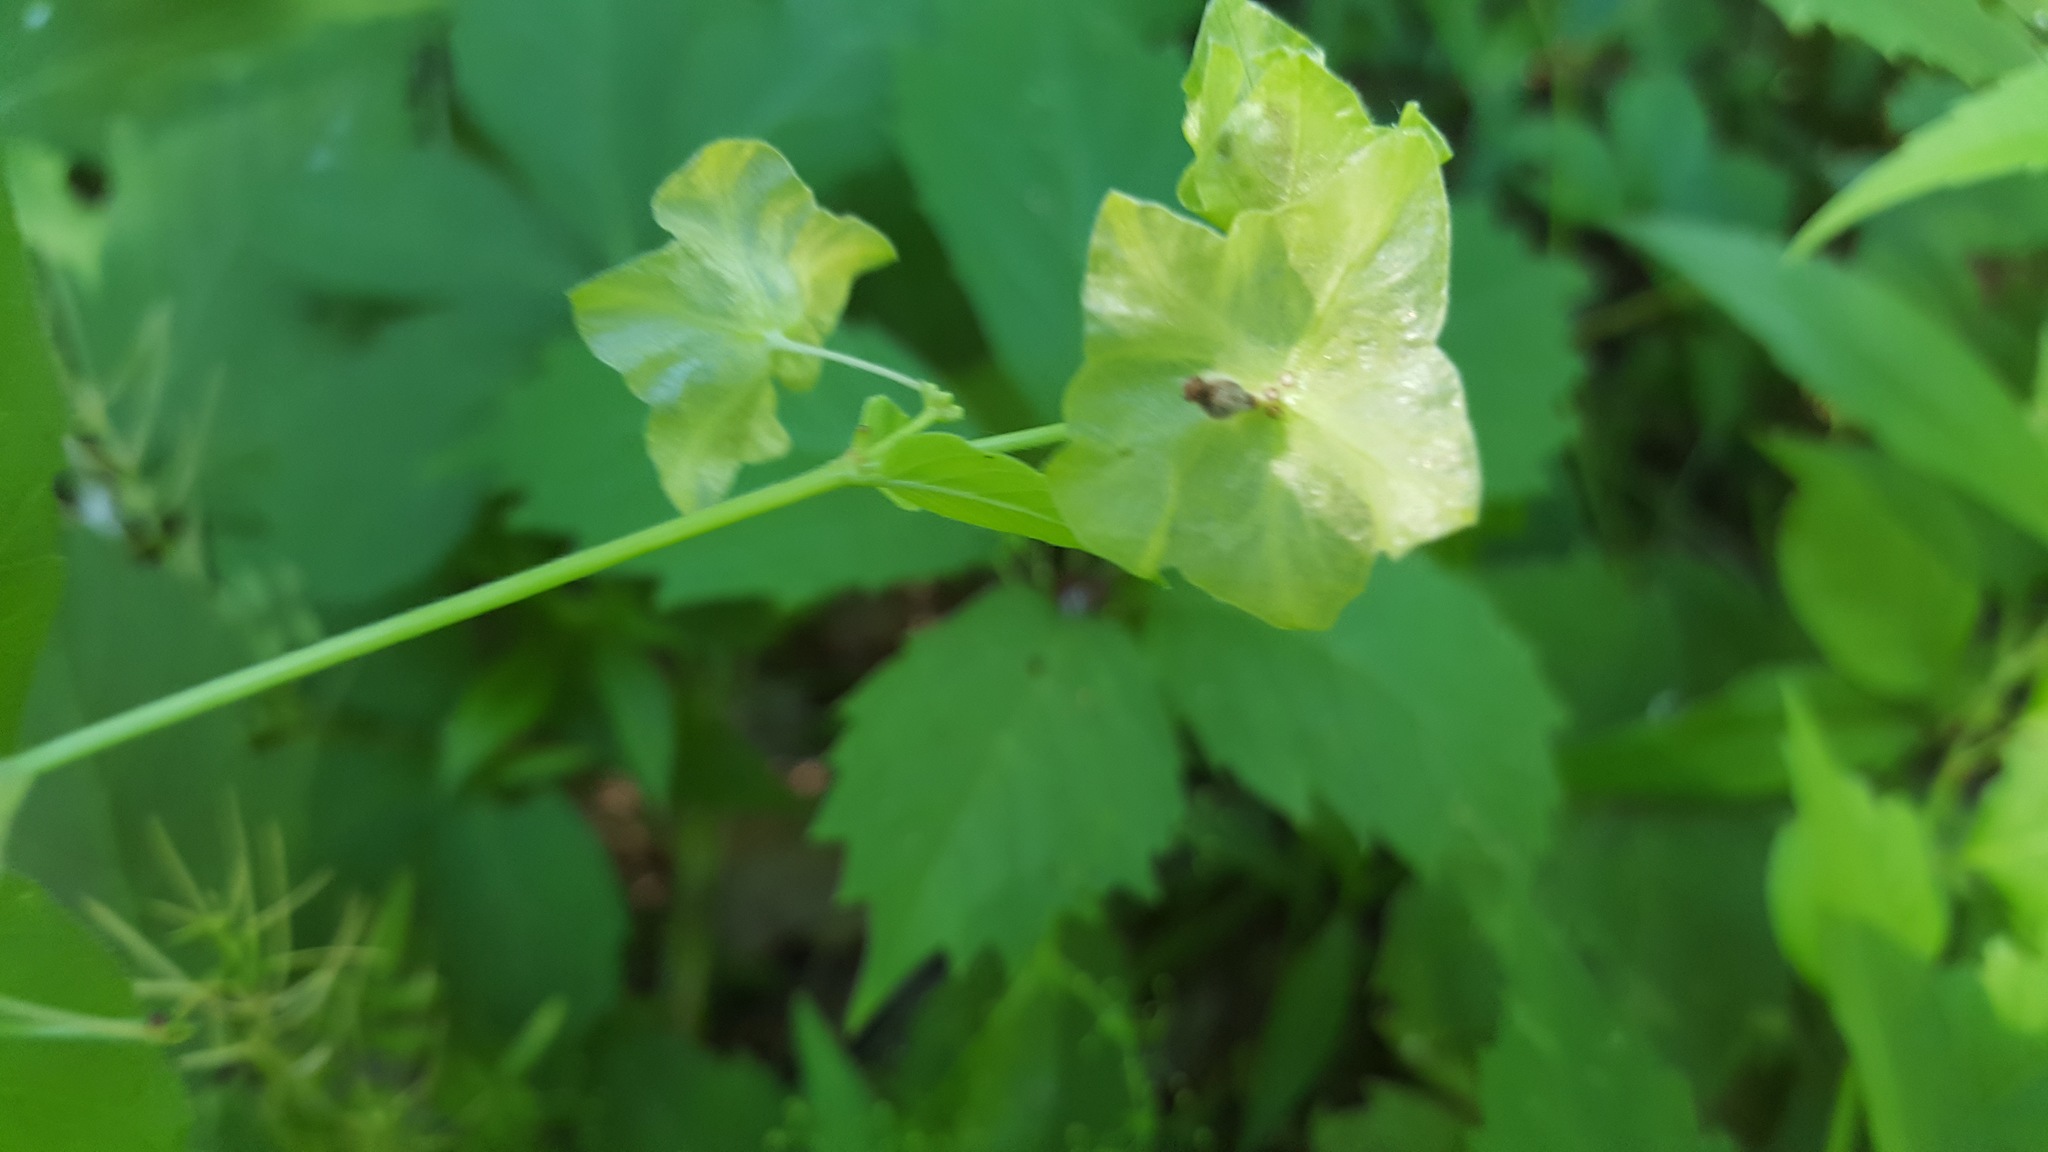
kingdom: Plantae
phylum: Tracheophyta
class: Magnoliopsida
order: Caryophyllales
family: Nyctaginaceae
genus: Mirabilis
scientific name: Mirabilis albida
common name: Hairy four-o'clock
